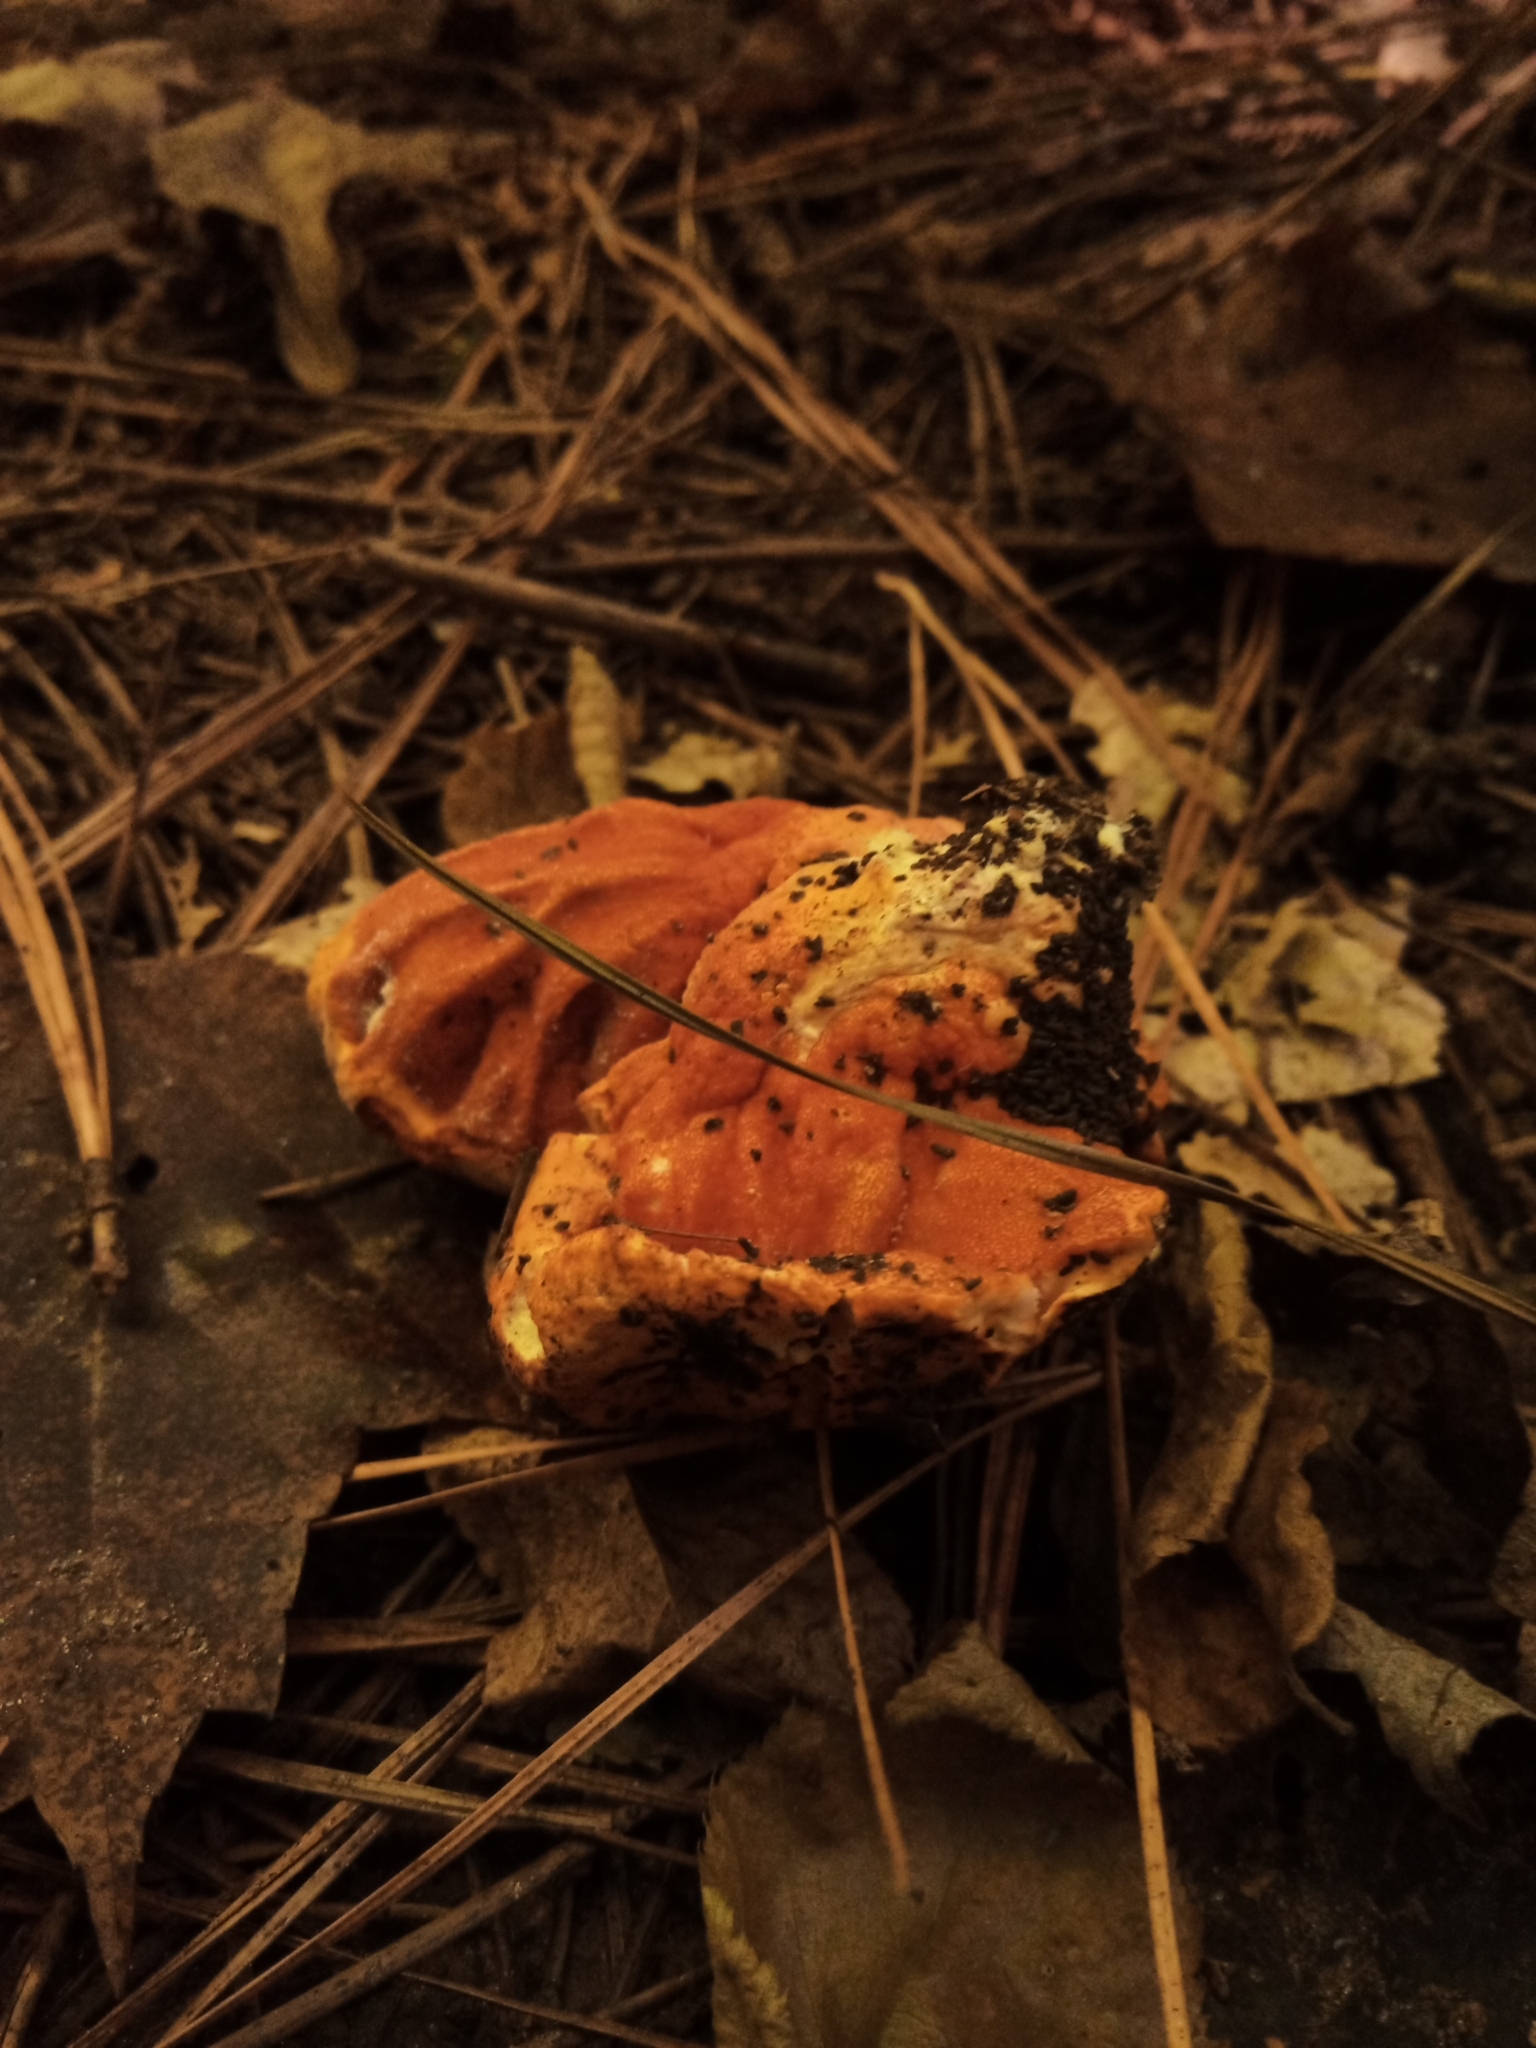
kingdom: Fungi
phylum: Ascomycota
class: Sordariomycetes
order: Hypocreales
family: Hypocreaceae
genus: Hypomyces
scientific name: Hypomyces lactifluorum
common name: Lobster mushroom
